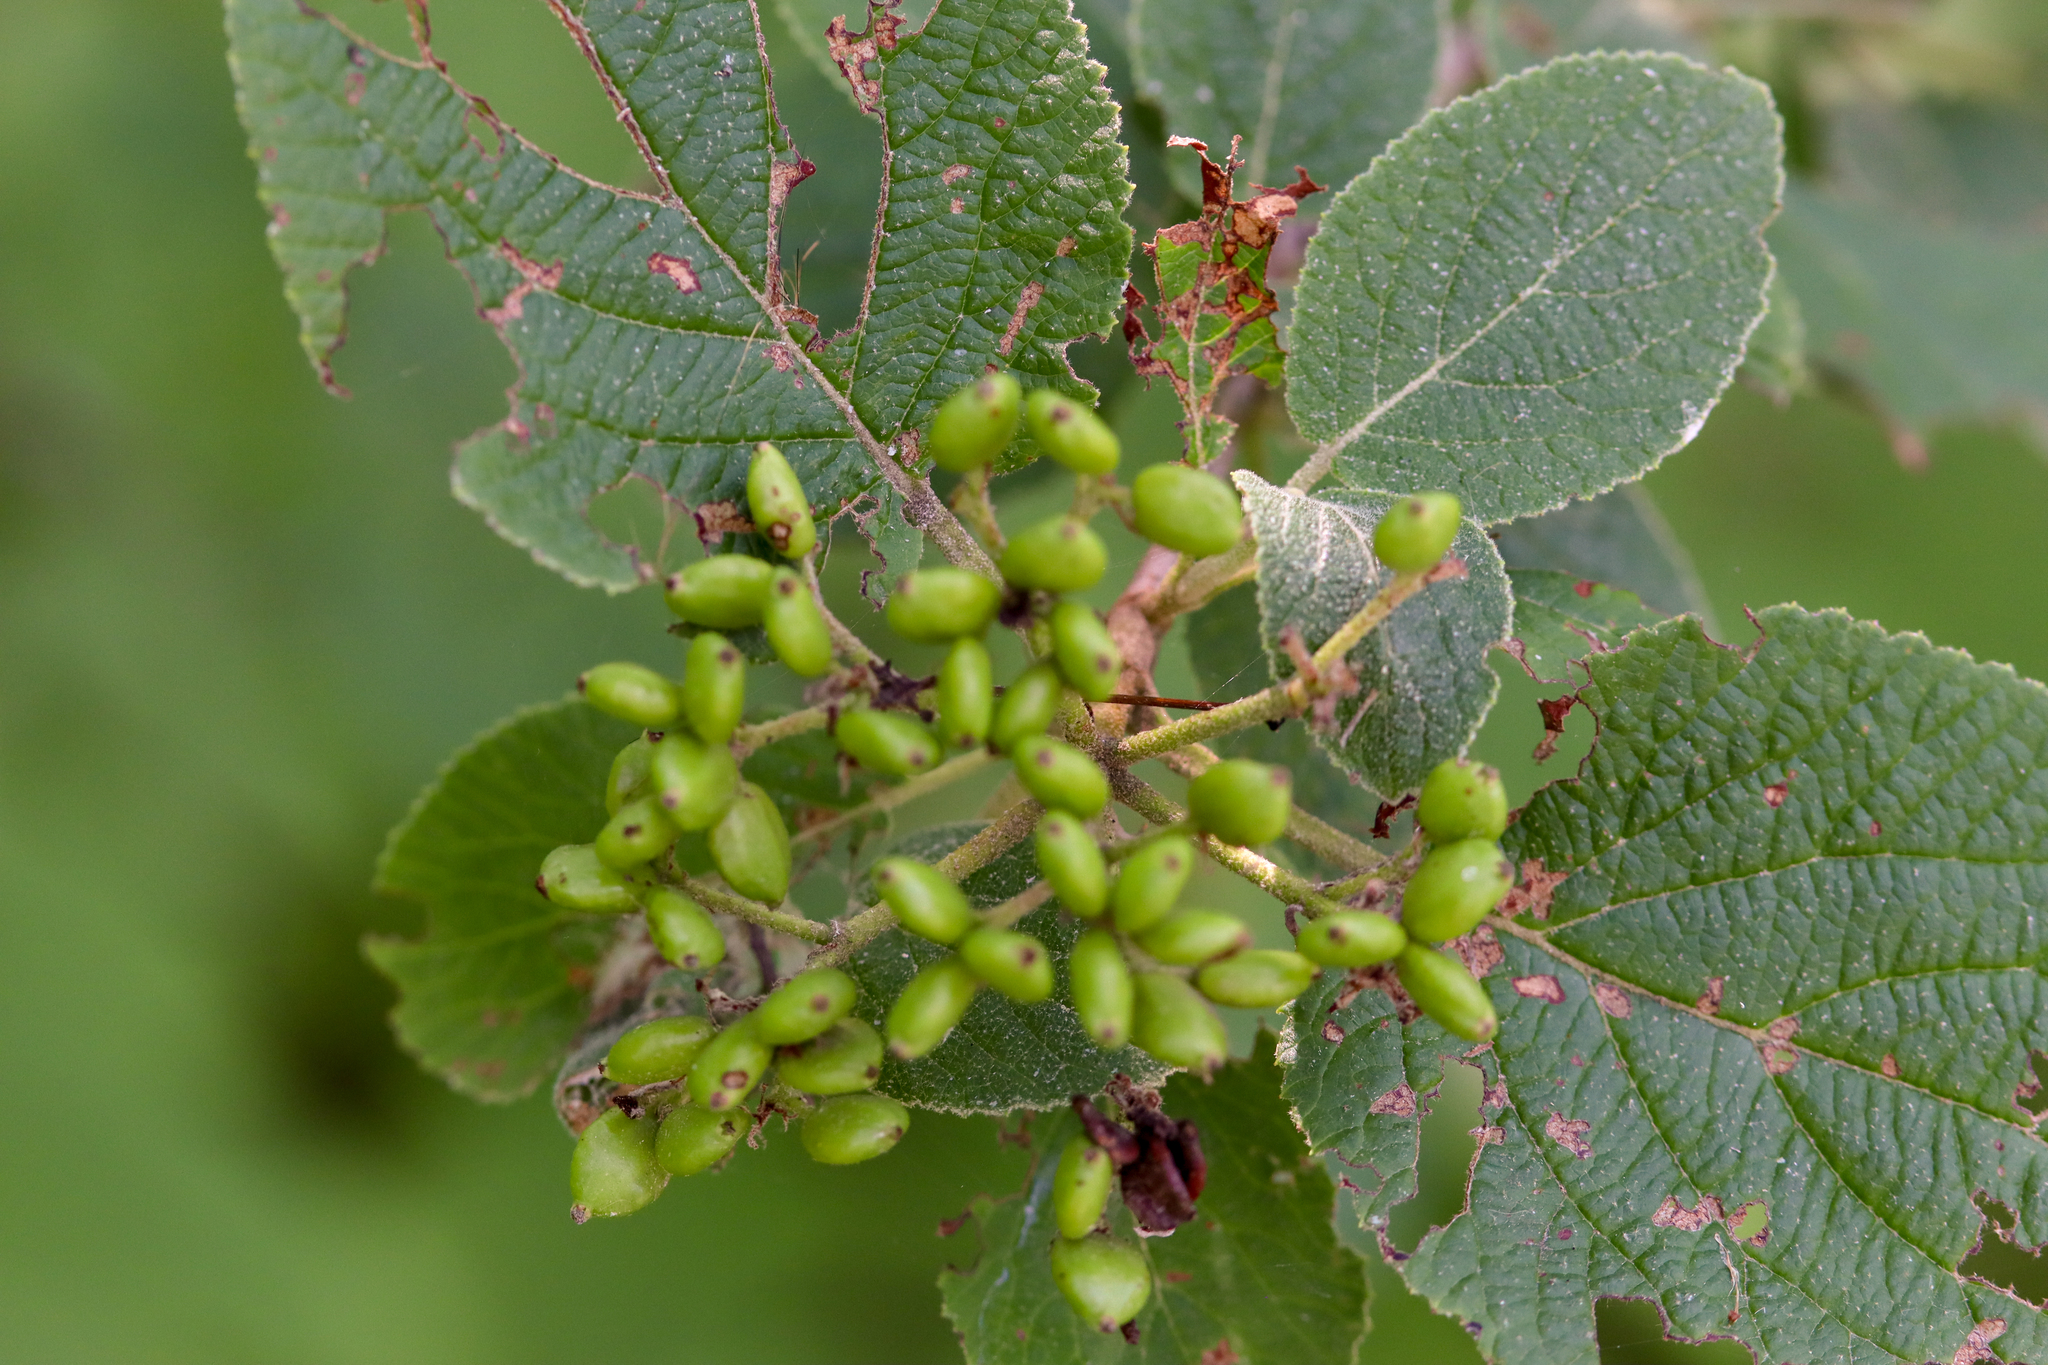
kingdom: Plantae
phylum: Tracheophyta
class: Magnoliopsida
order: Dipsacales
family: Viburnaceae
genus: Viburnum
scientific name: Viburnum lantana
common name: Wayfaring tree
